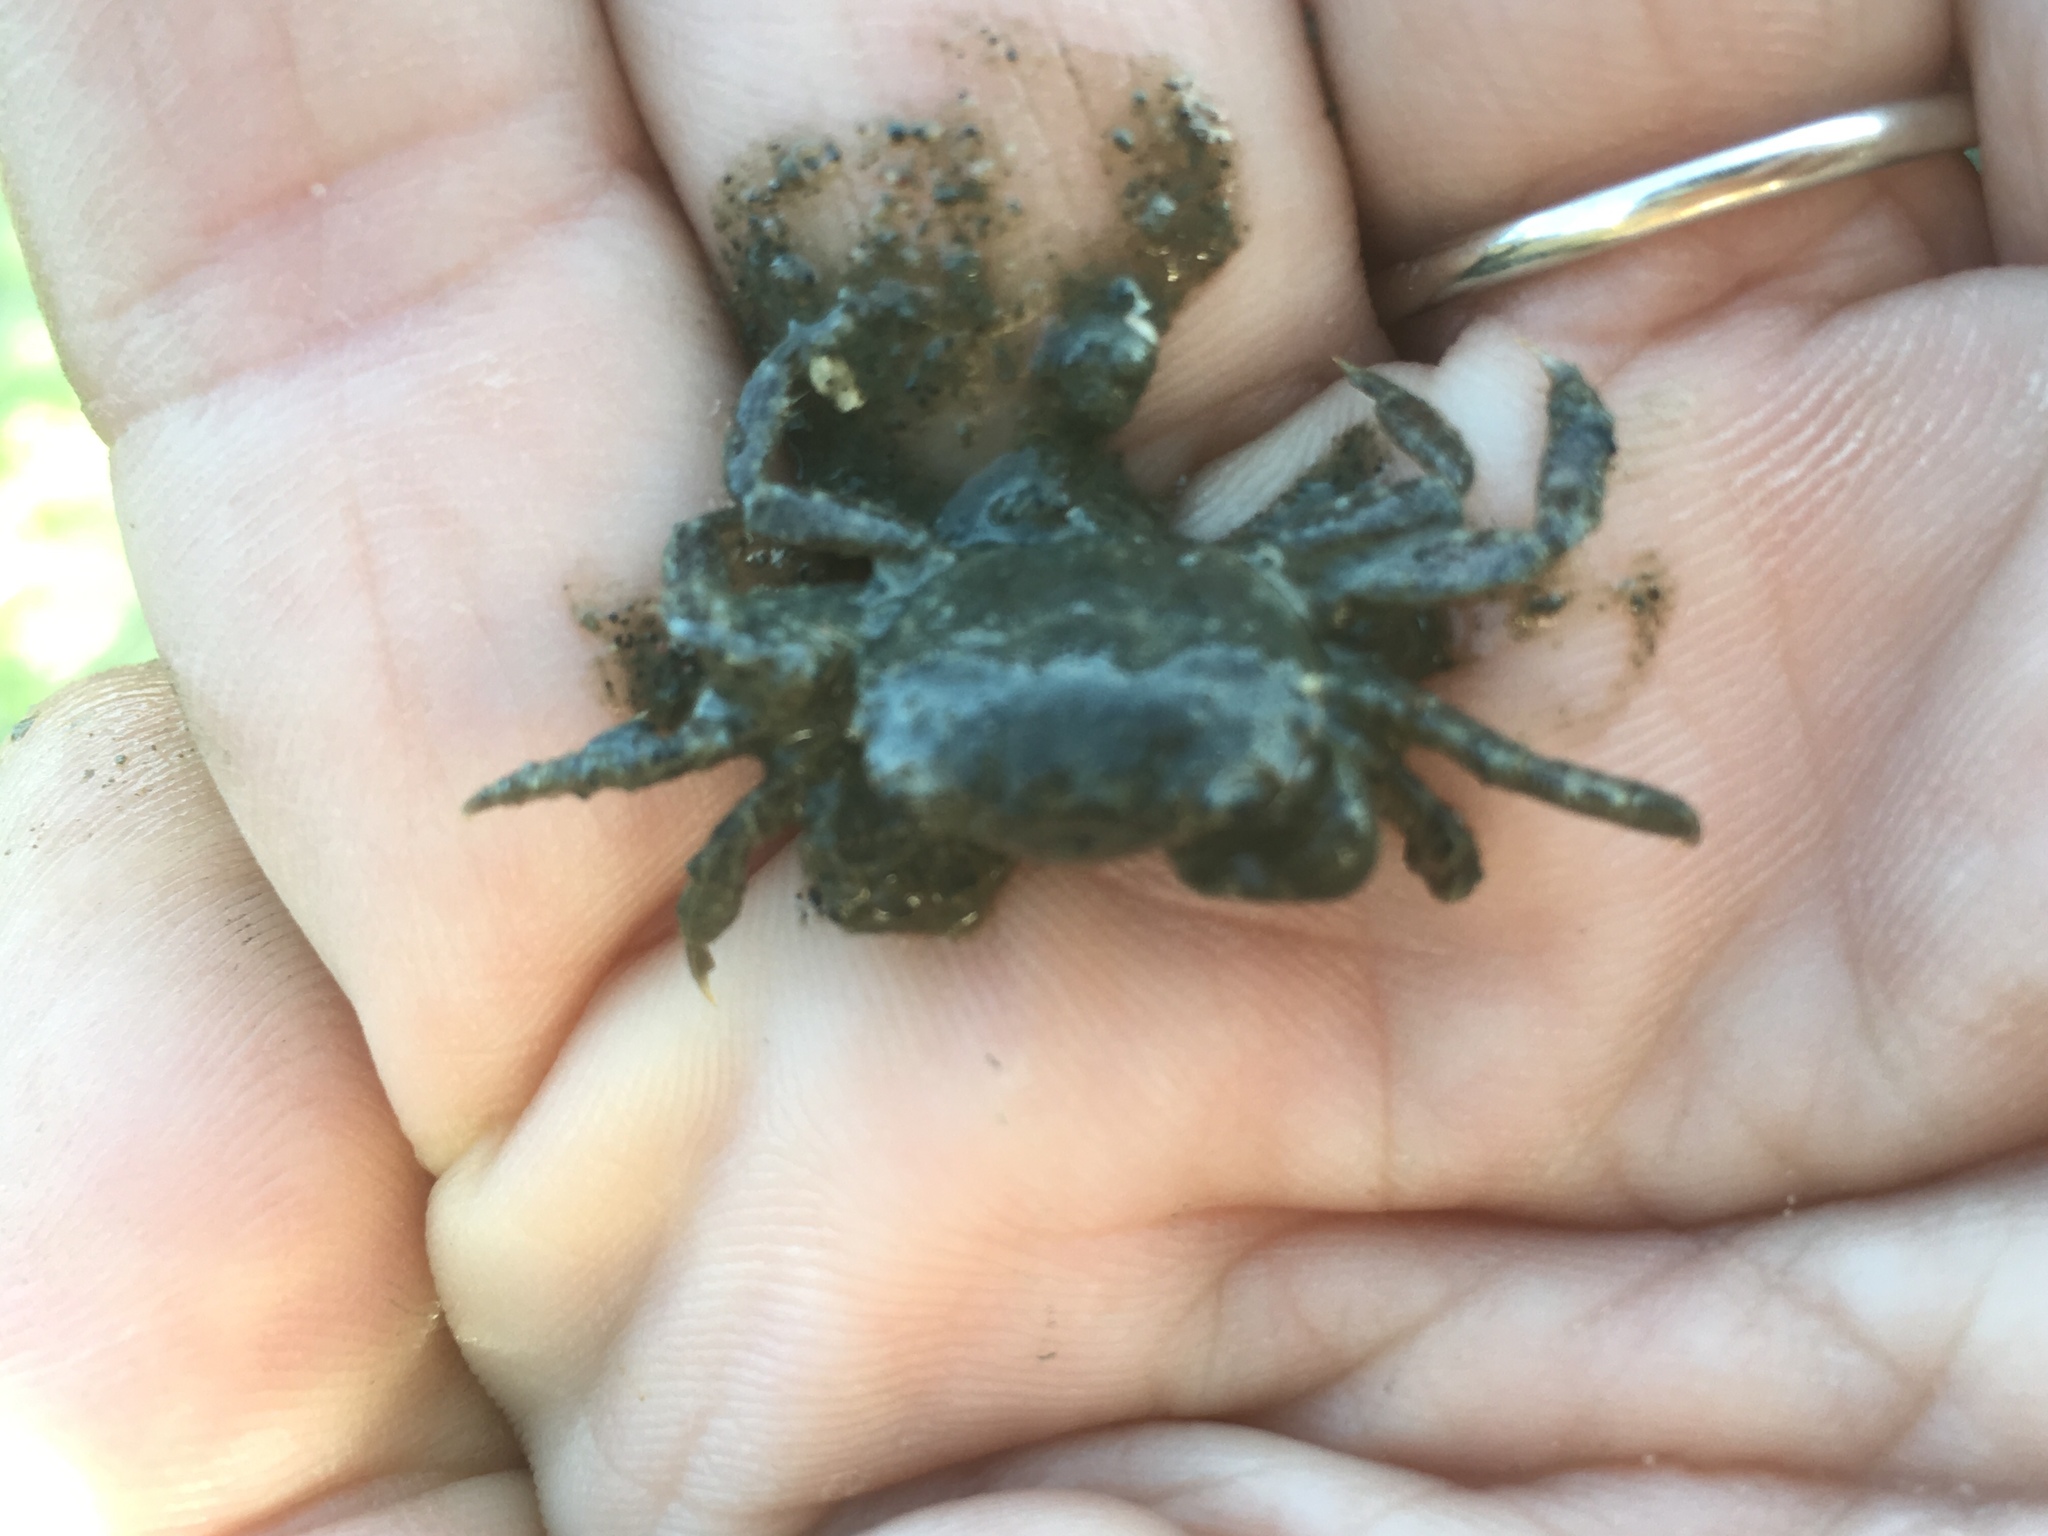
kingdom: Animalia
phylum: Arthropoda
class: Malacostraca
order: Decapoda
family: Varunidae
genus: Hemigrapsus
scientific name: Hemigrapsus oregonensis
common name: Yellow shore crab
